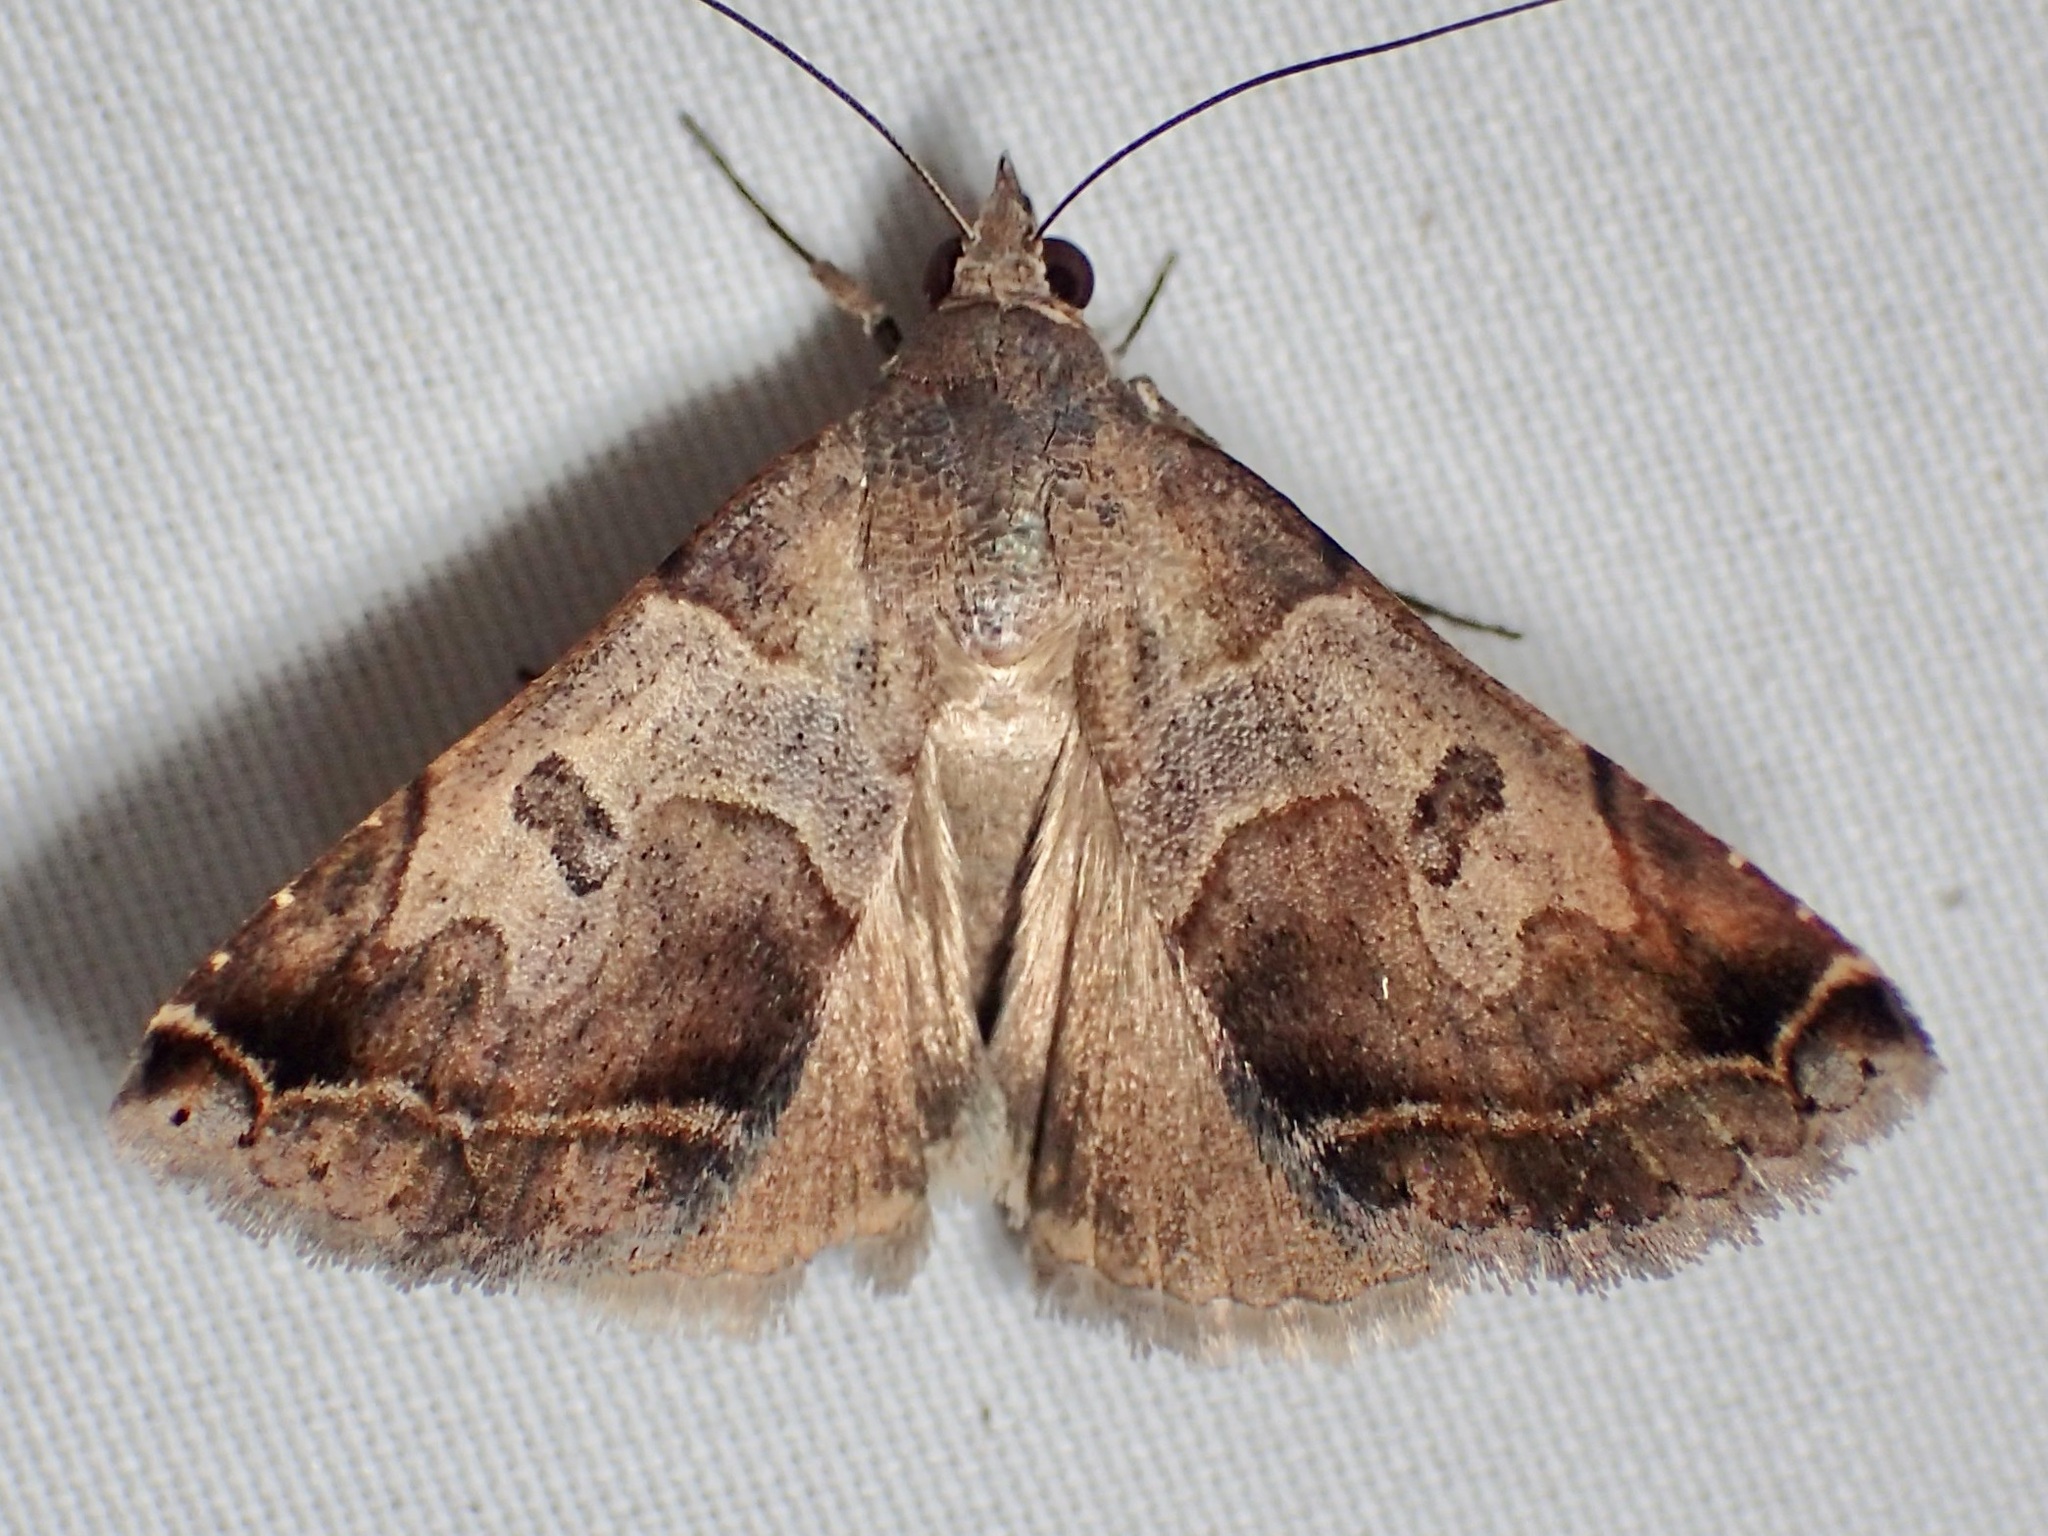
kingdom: Animalia
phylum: Arthropoda
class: Insecta
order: Lepidoptera
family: Erebidae
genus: Panula
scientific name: Panula inconstans
